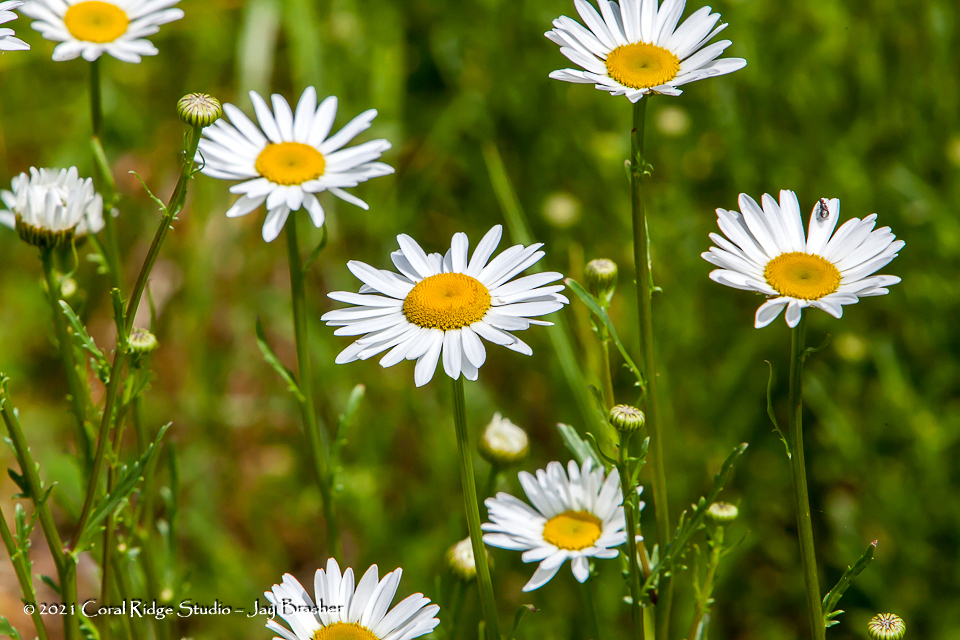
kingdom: Plantae
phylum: Tracheophyta
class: Magnoliopsida
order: Asterales
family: Asteraceae
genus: Leucanthemum
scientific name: Leucanthemum vulgare
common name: Oxeye daisy
